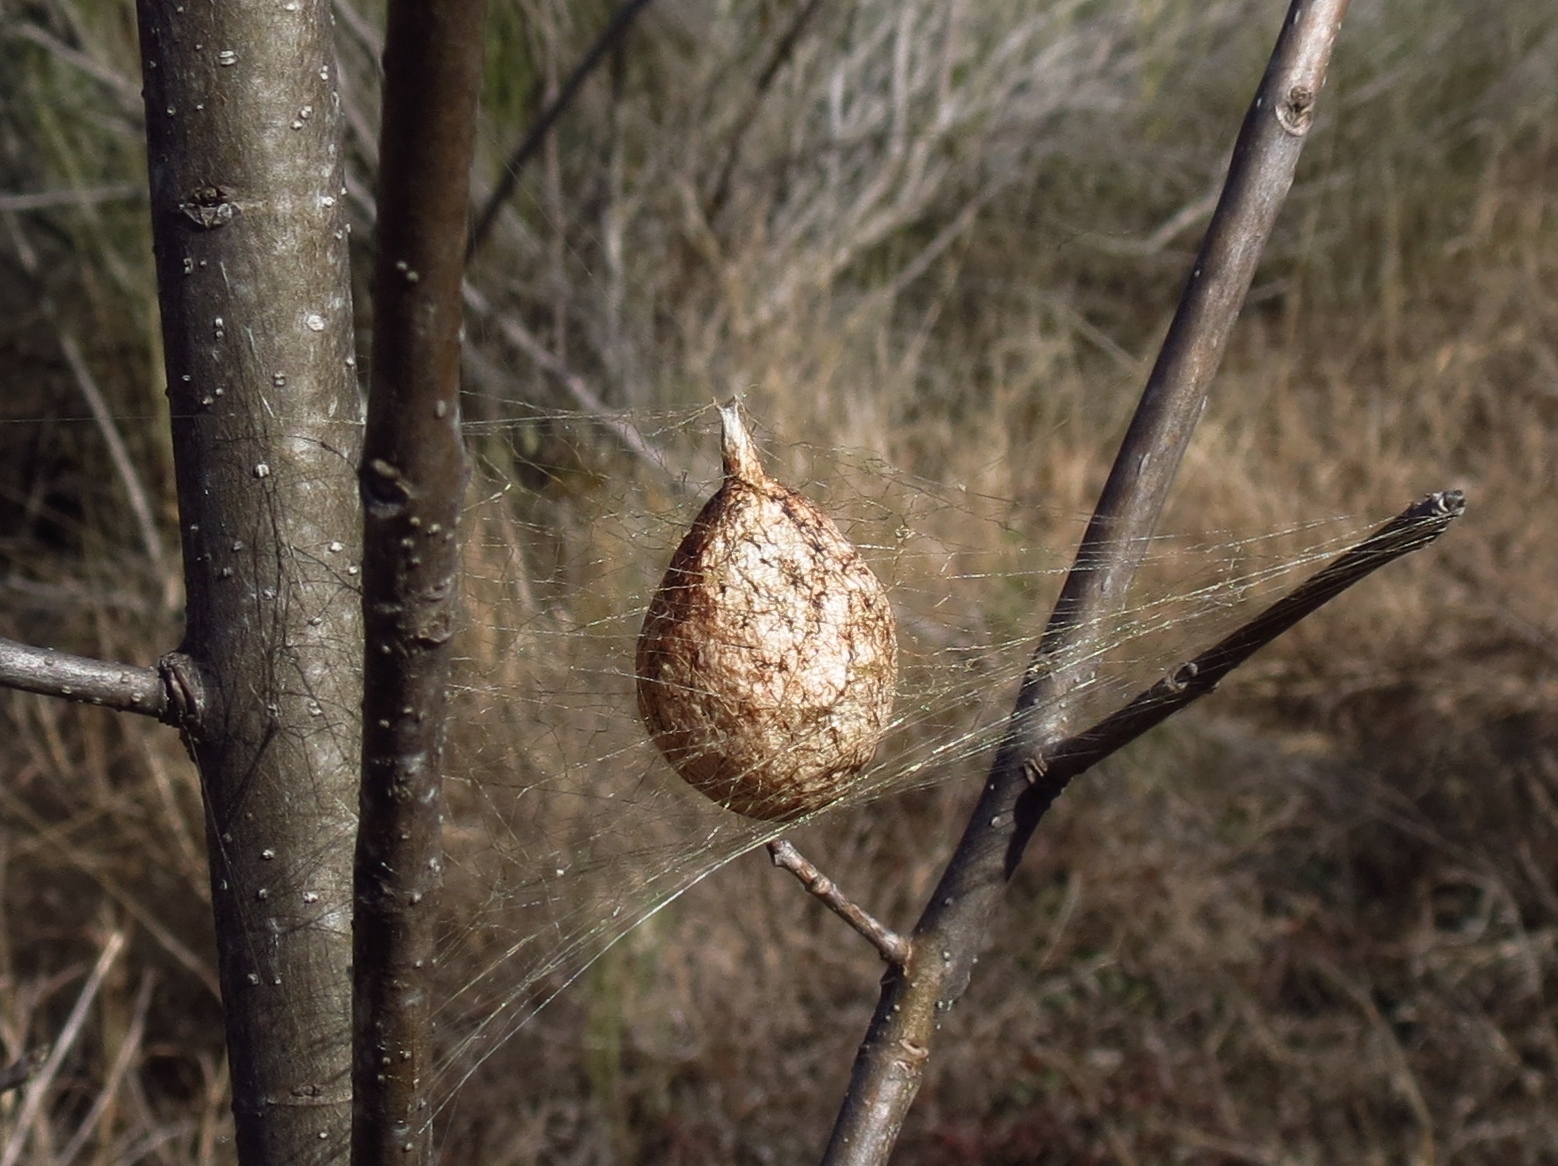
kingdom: Animalia
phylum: Arthropoda
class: Arachnida
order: Araneae
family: Araneidae
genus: Argiope
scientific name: Argiope aurantia
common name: Orb weavers
